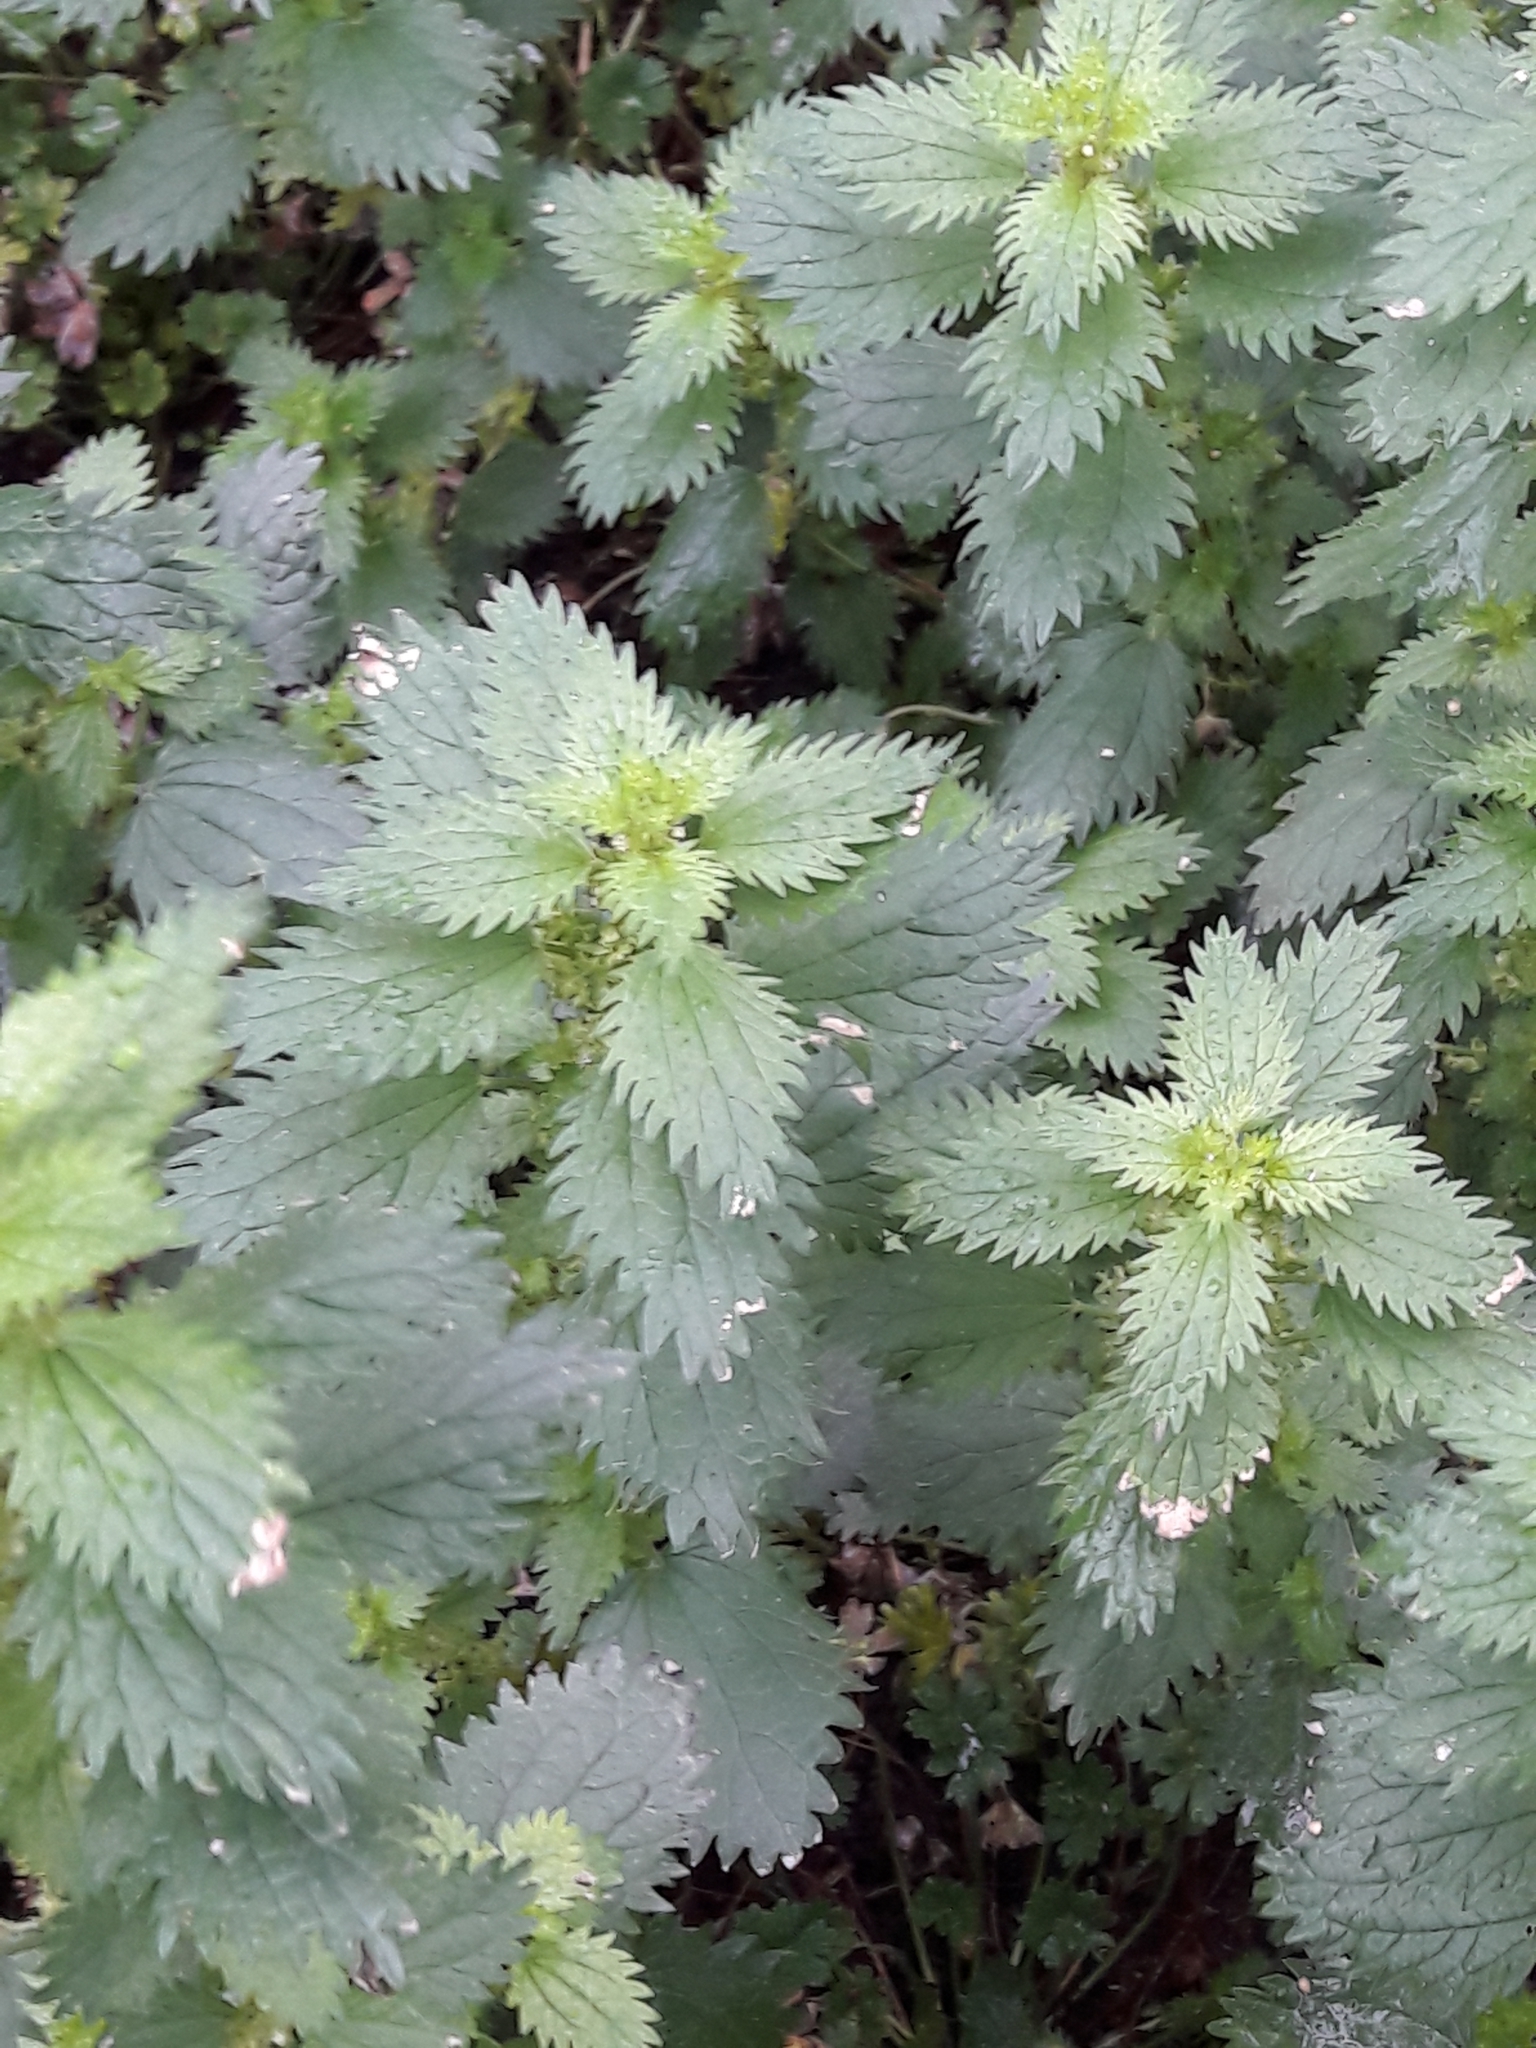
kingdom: Plantae
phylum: Tracheophyta
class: Magnoliopsida
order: Rosales
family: Urticaceae
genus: Urtica
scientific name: Urtica urens
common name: Dwarf nettle
